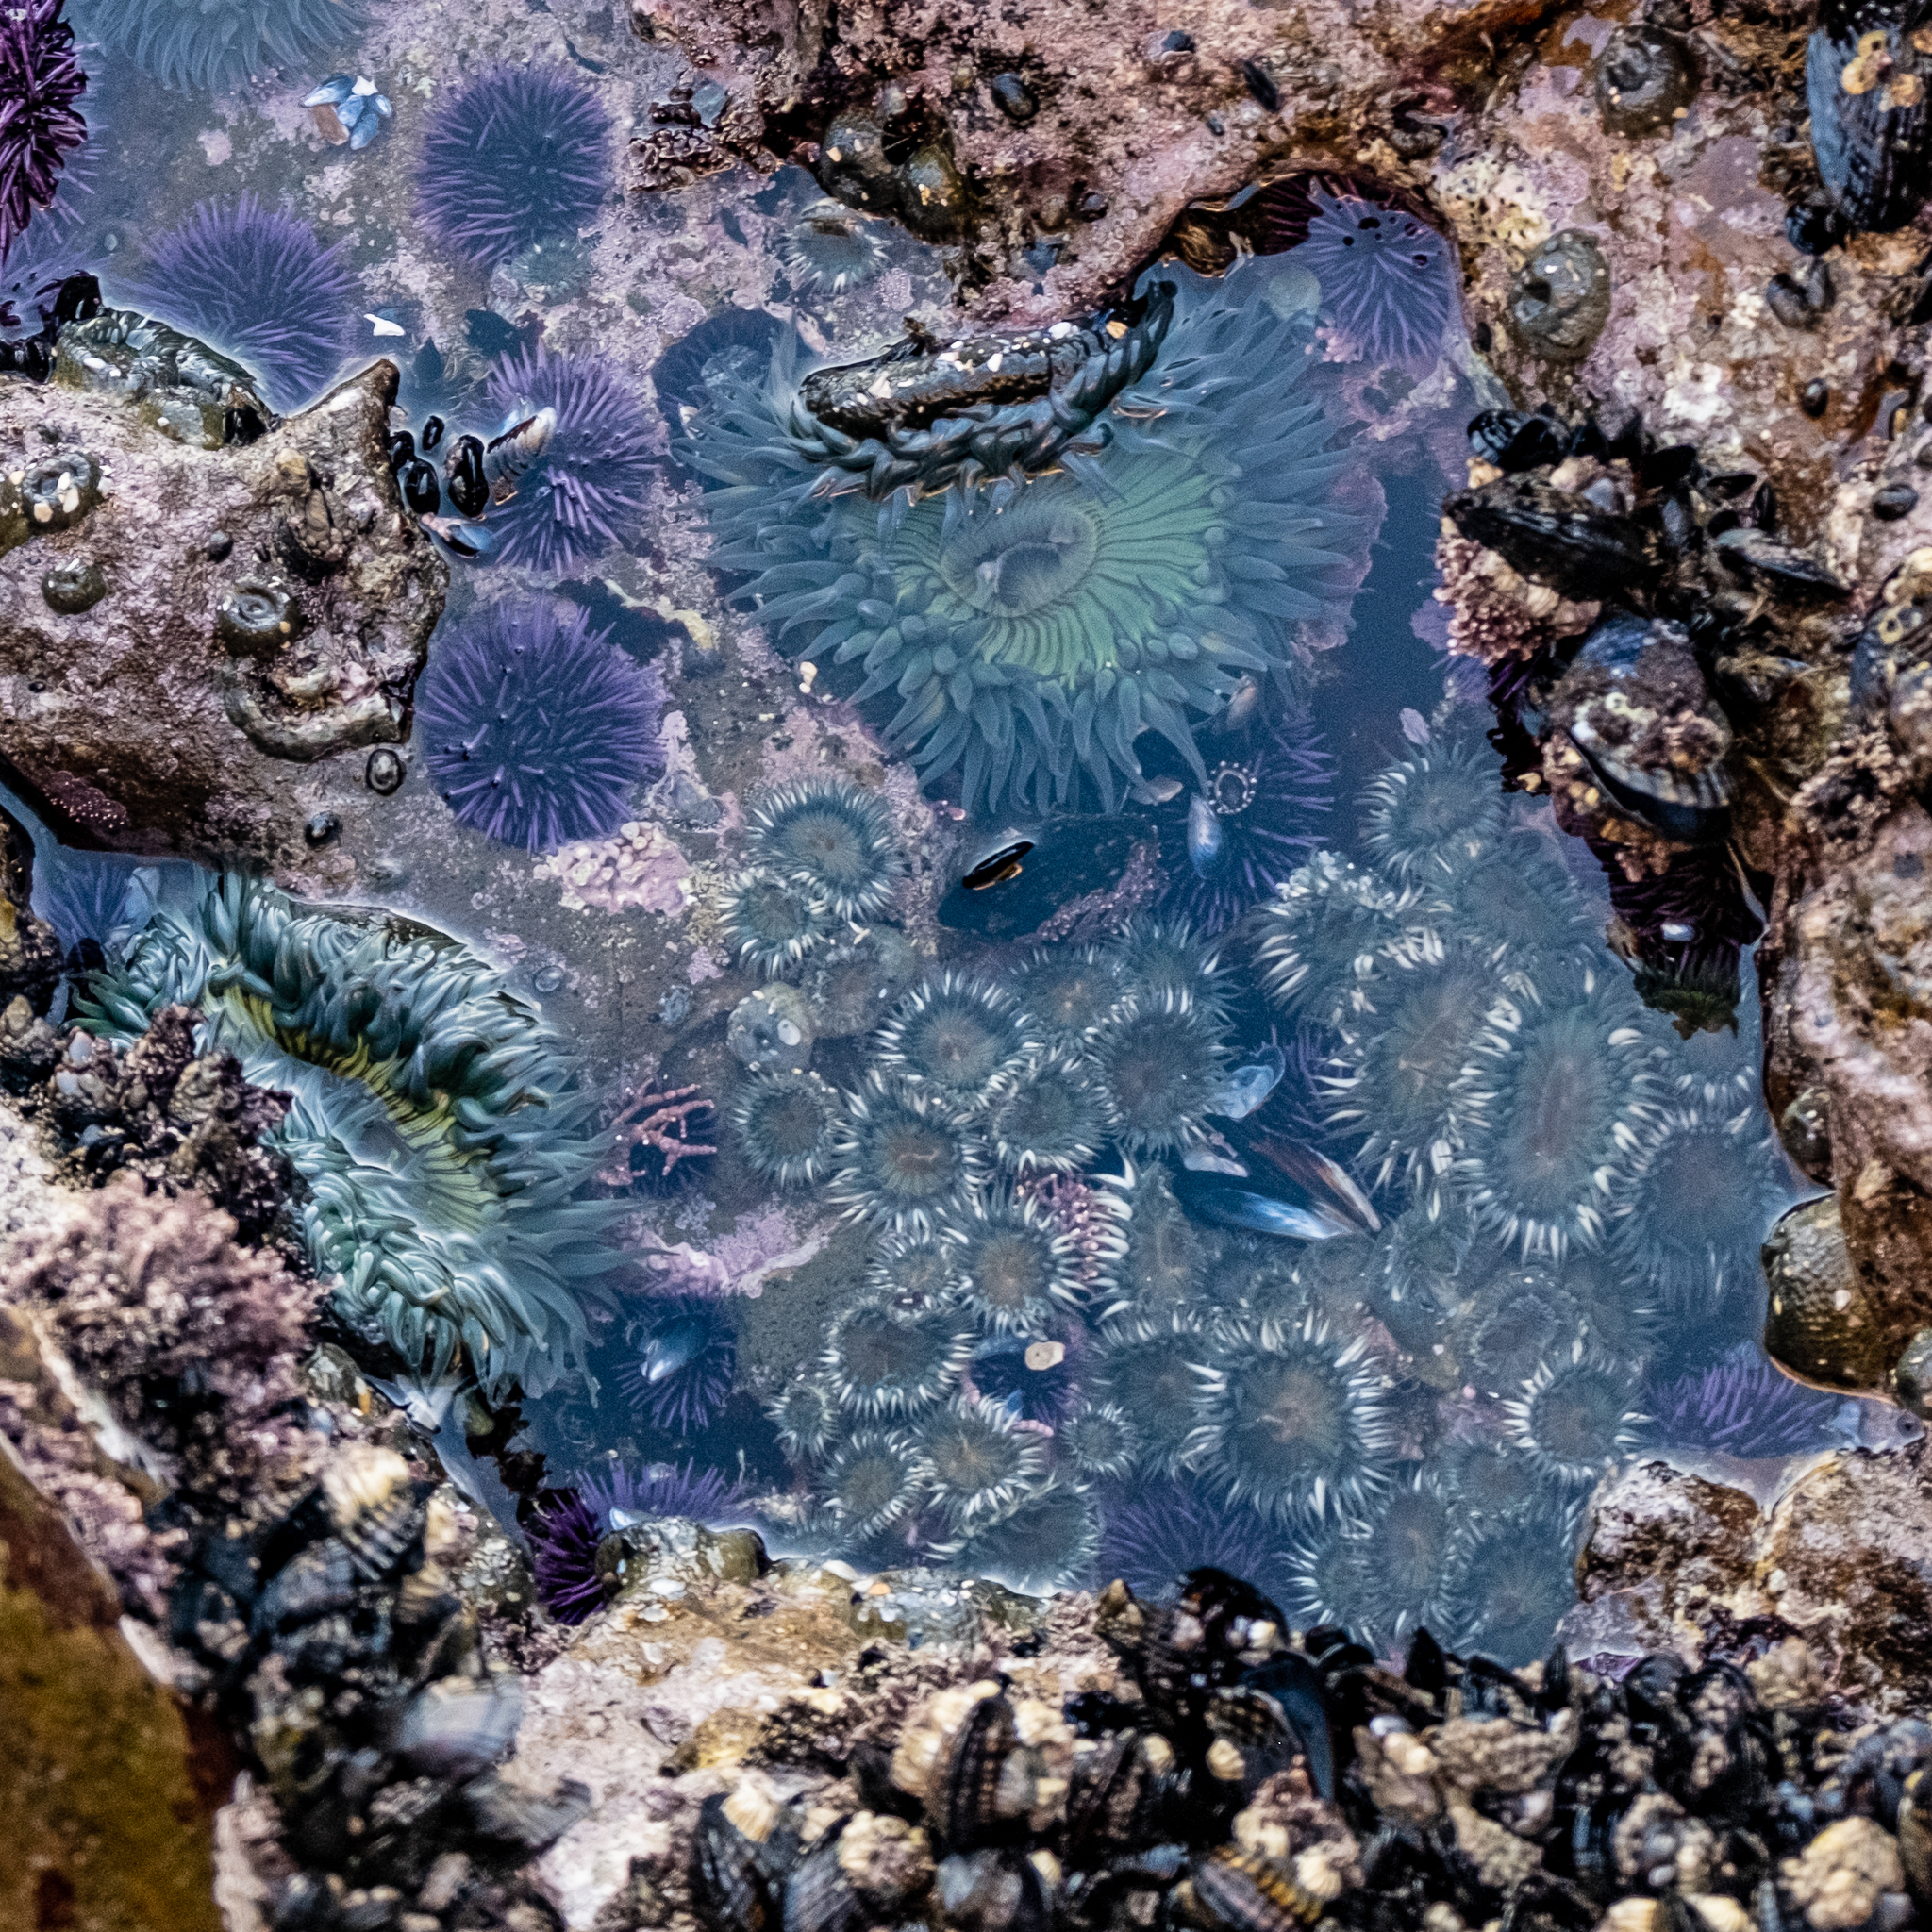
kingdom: Animalia
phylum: Cnidaria
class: Anthozoa
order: Actiniaria
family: Actiniidae
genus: Anthopleura
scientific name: Anthopleura sola
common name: Sun anemone
